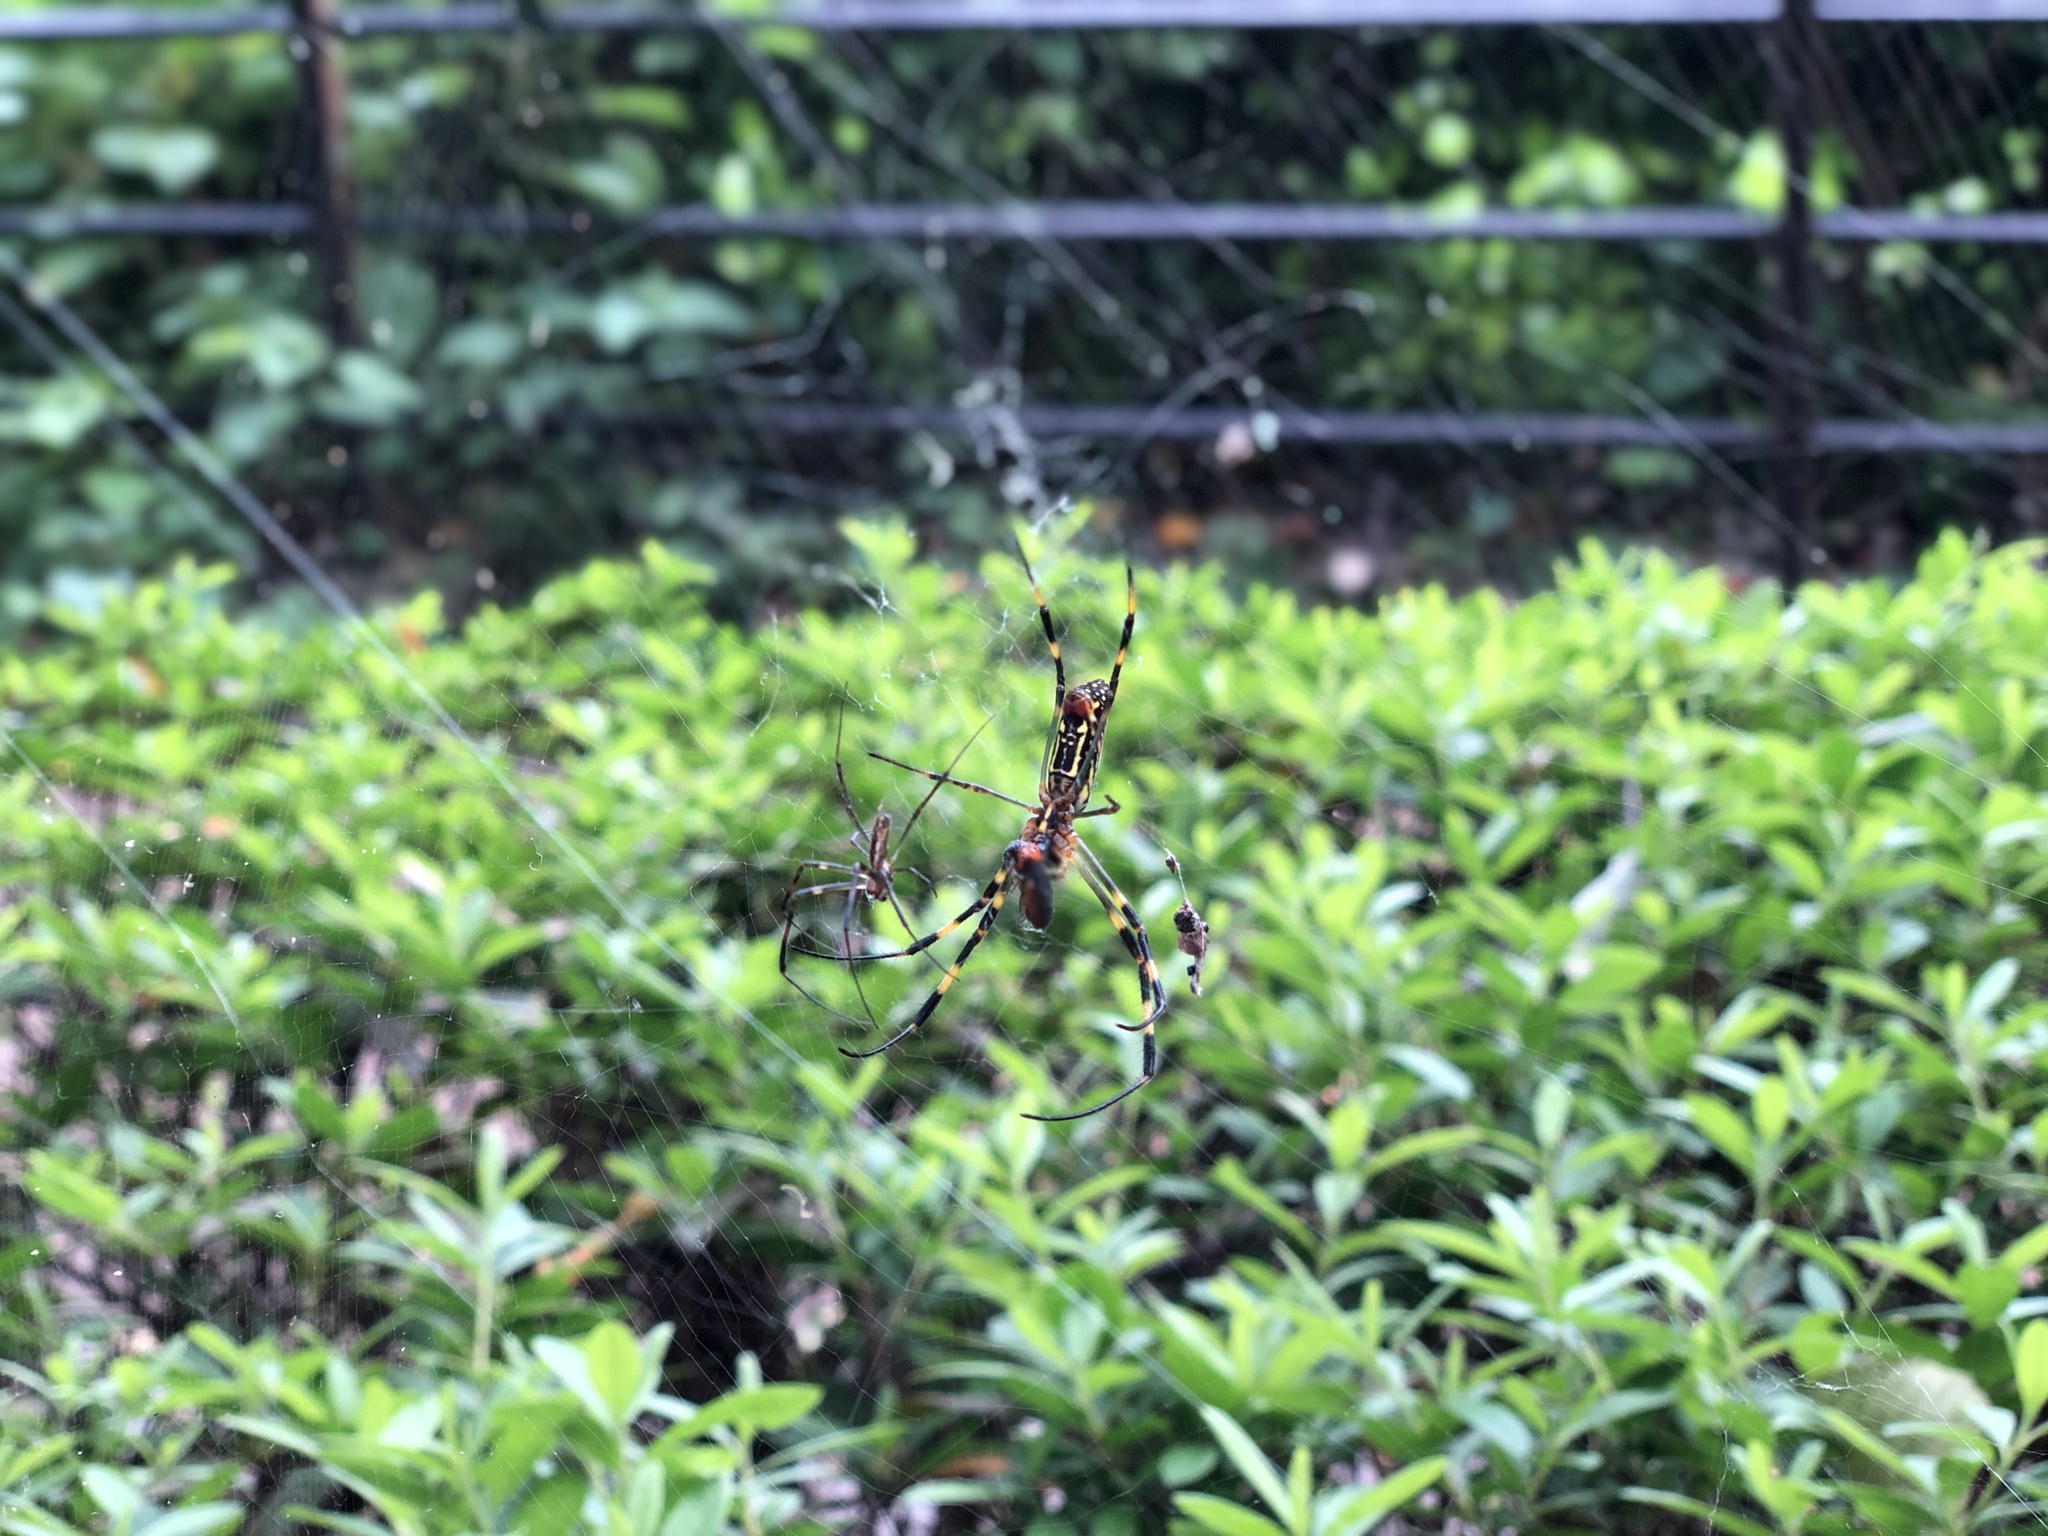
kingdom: Animalia
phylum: Arthropoda
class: Arachnida
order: Araneae
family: Araneidae
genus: Trichonephila
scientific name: Trichonephila clavata
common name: Jorō spider
